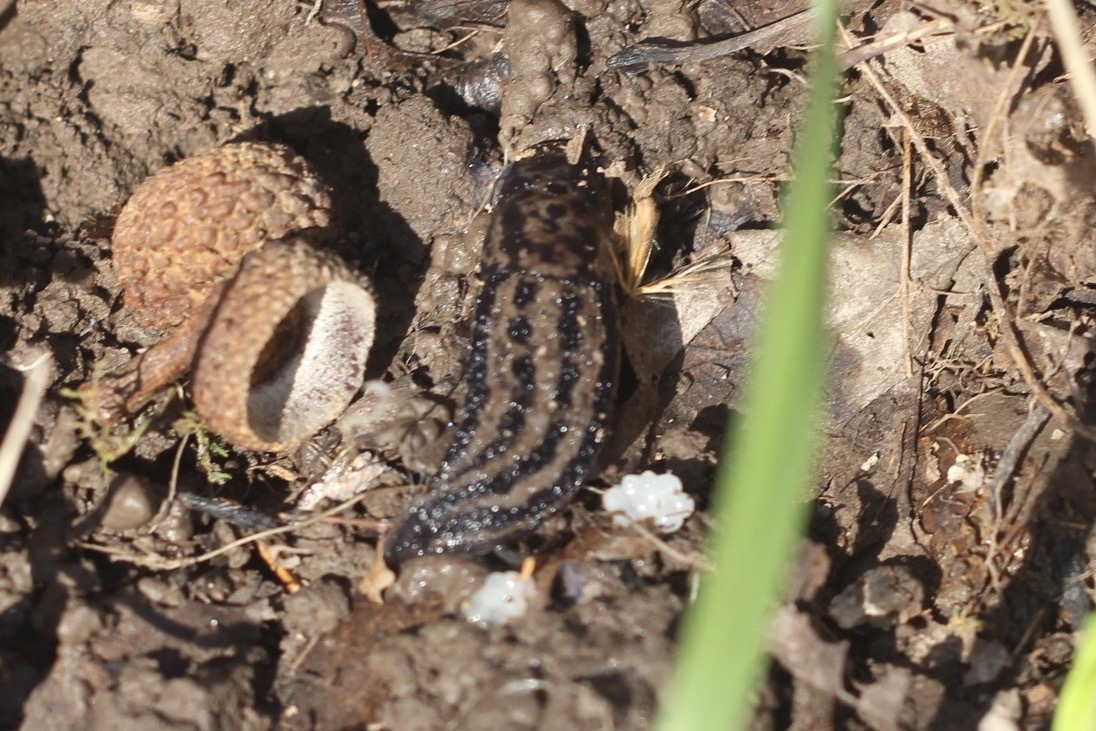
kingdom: Animalia
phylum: Mollusca
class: Gastropoda
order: Stylommatophora
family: Limacidae
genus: Limax
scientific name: Limax maximus
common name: Great grey slug
